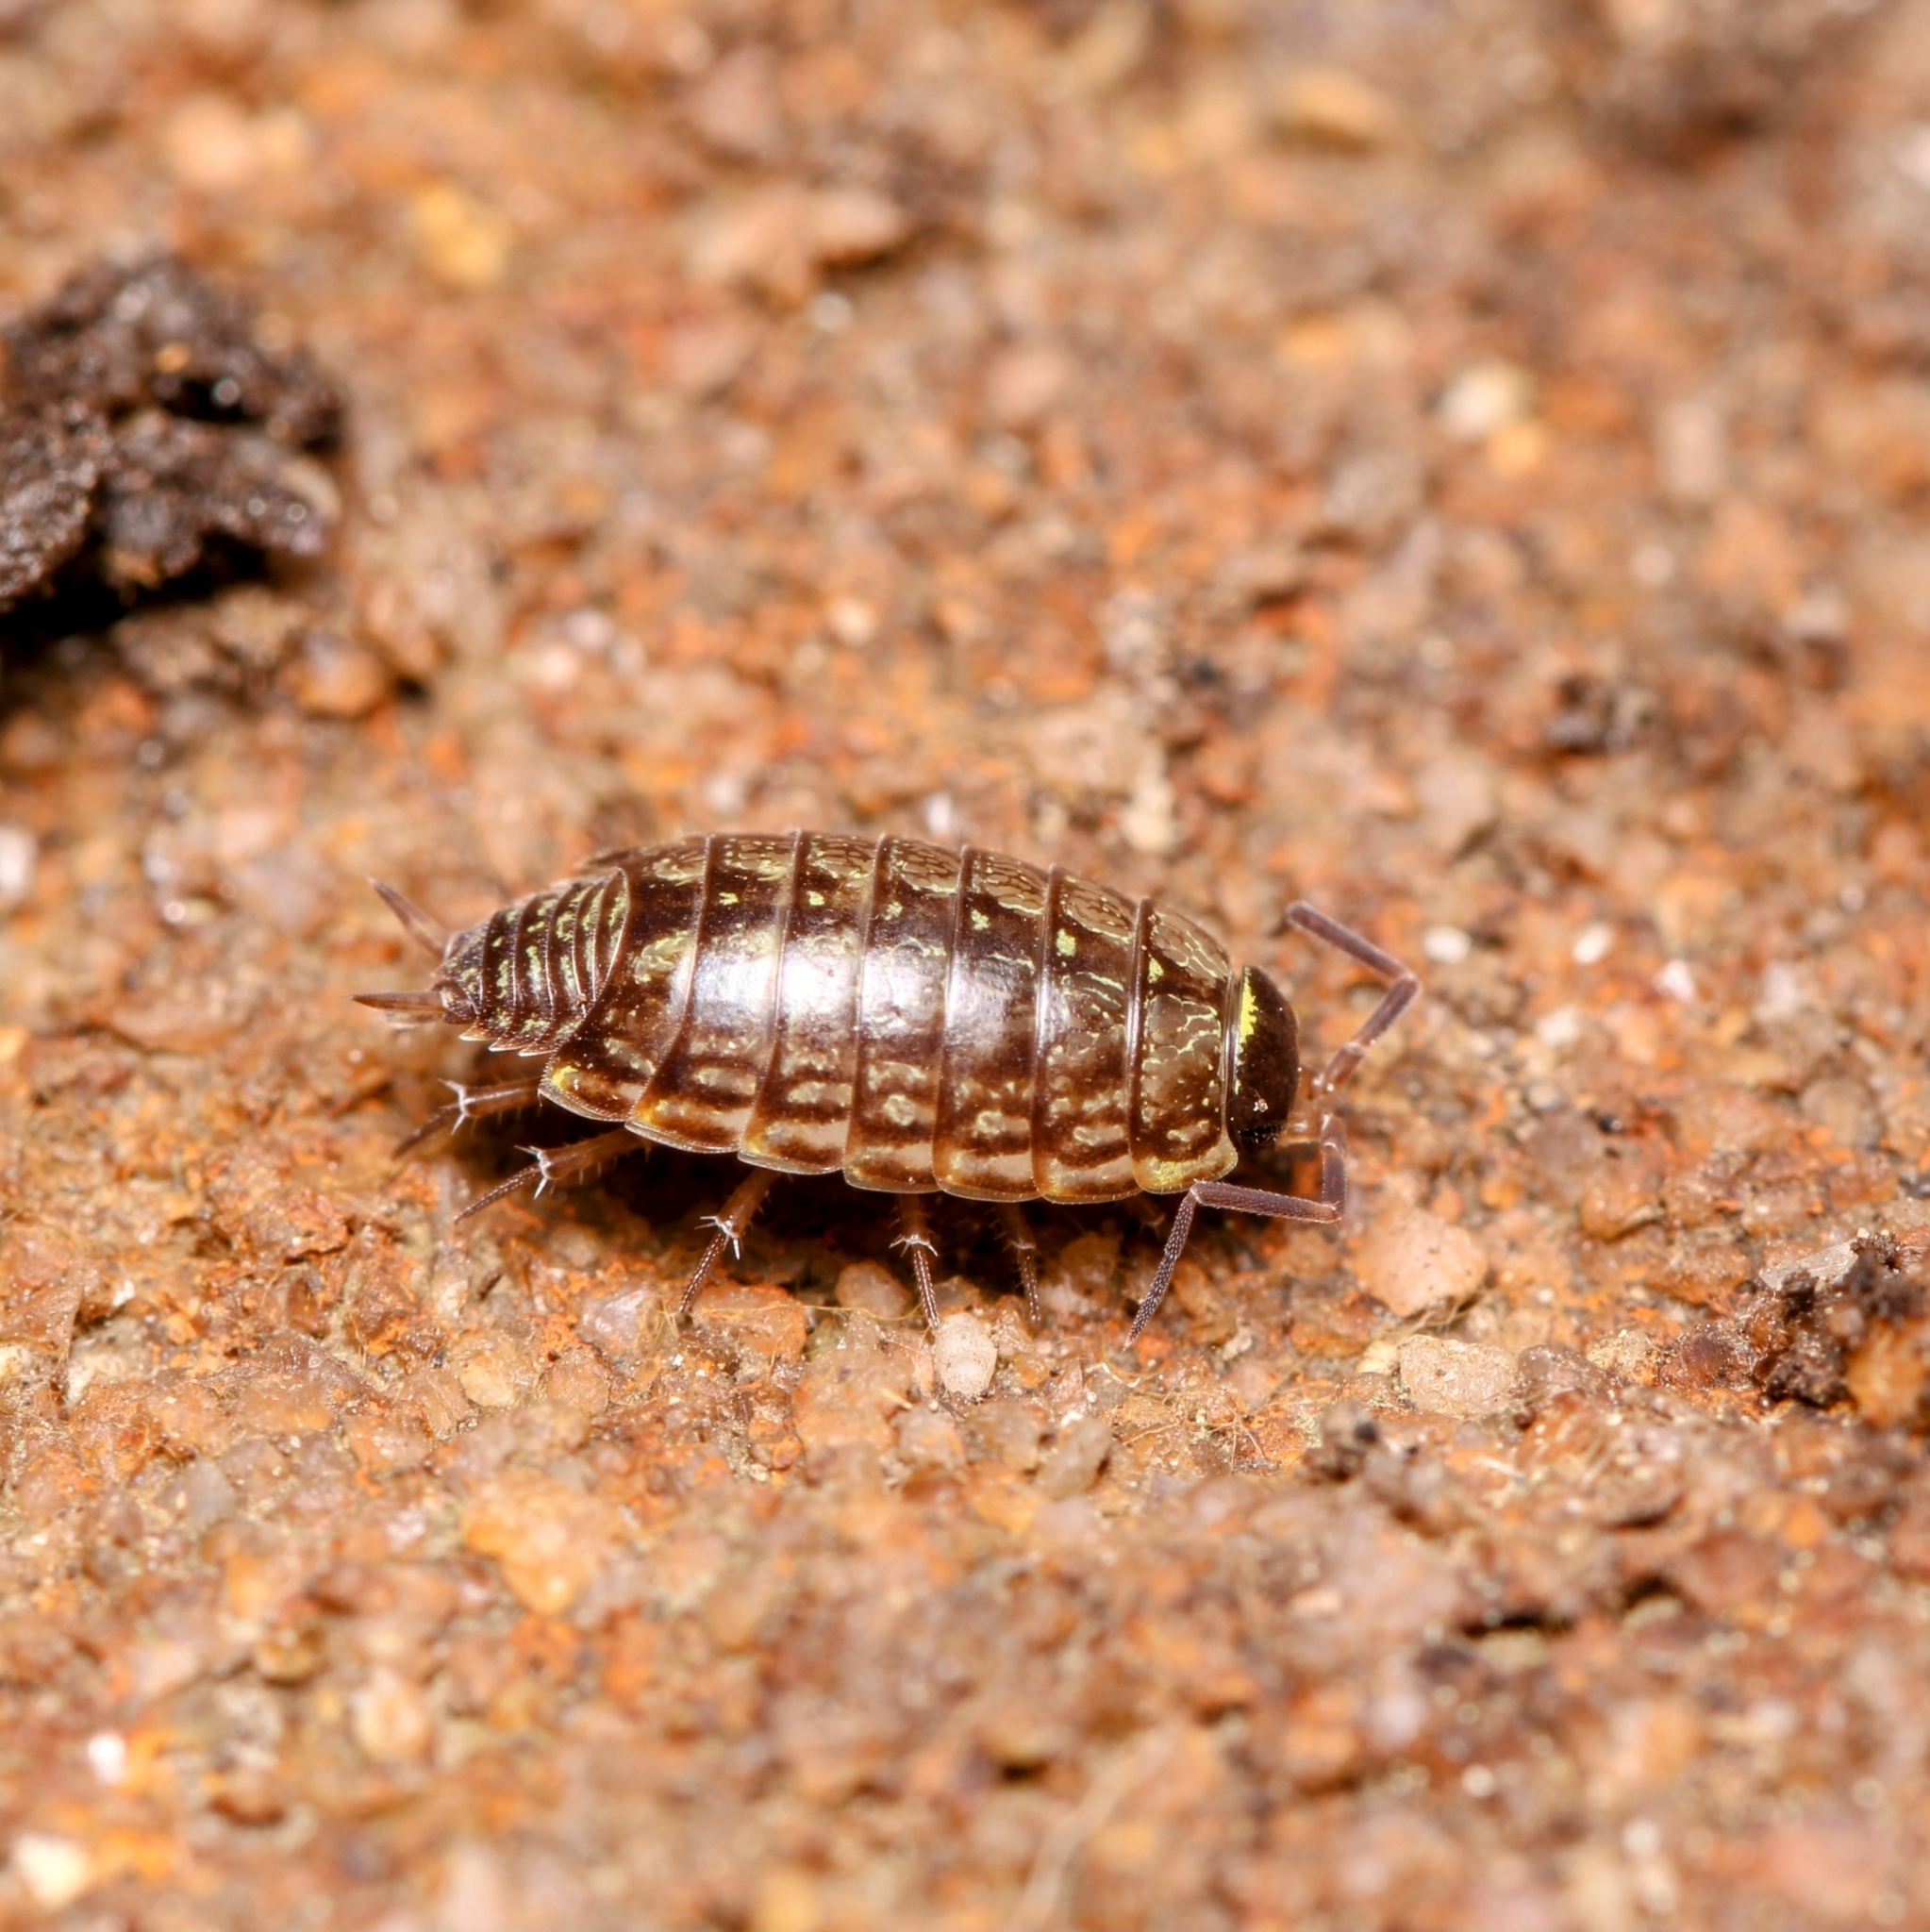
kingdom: Animalia
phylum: Arthropoda
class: Malacostraca
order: Isopoda
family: Philosciidae
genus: Philoscia
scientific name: Philoscia muscorum
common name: Common striped woodlouse
